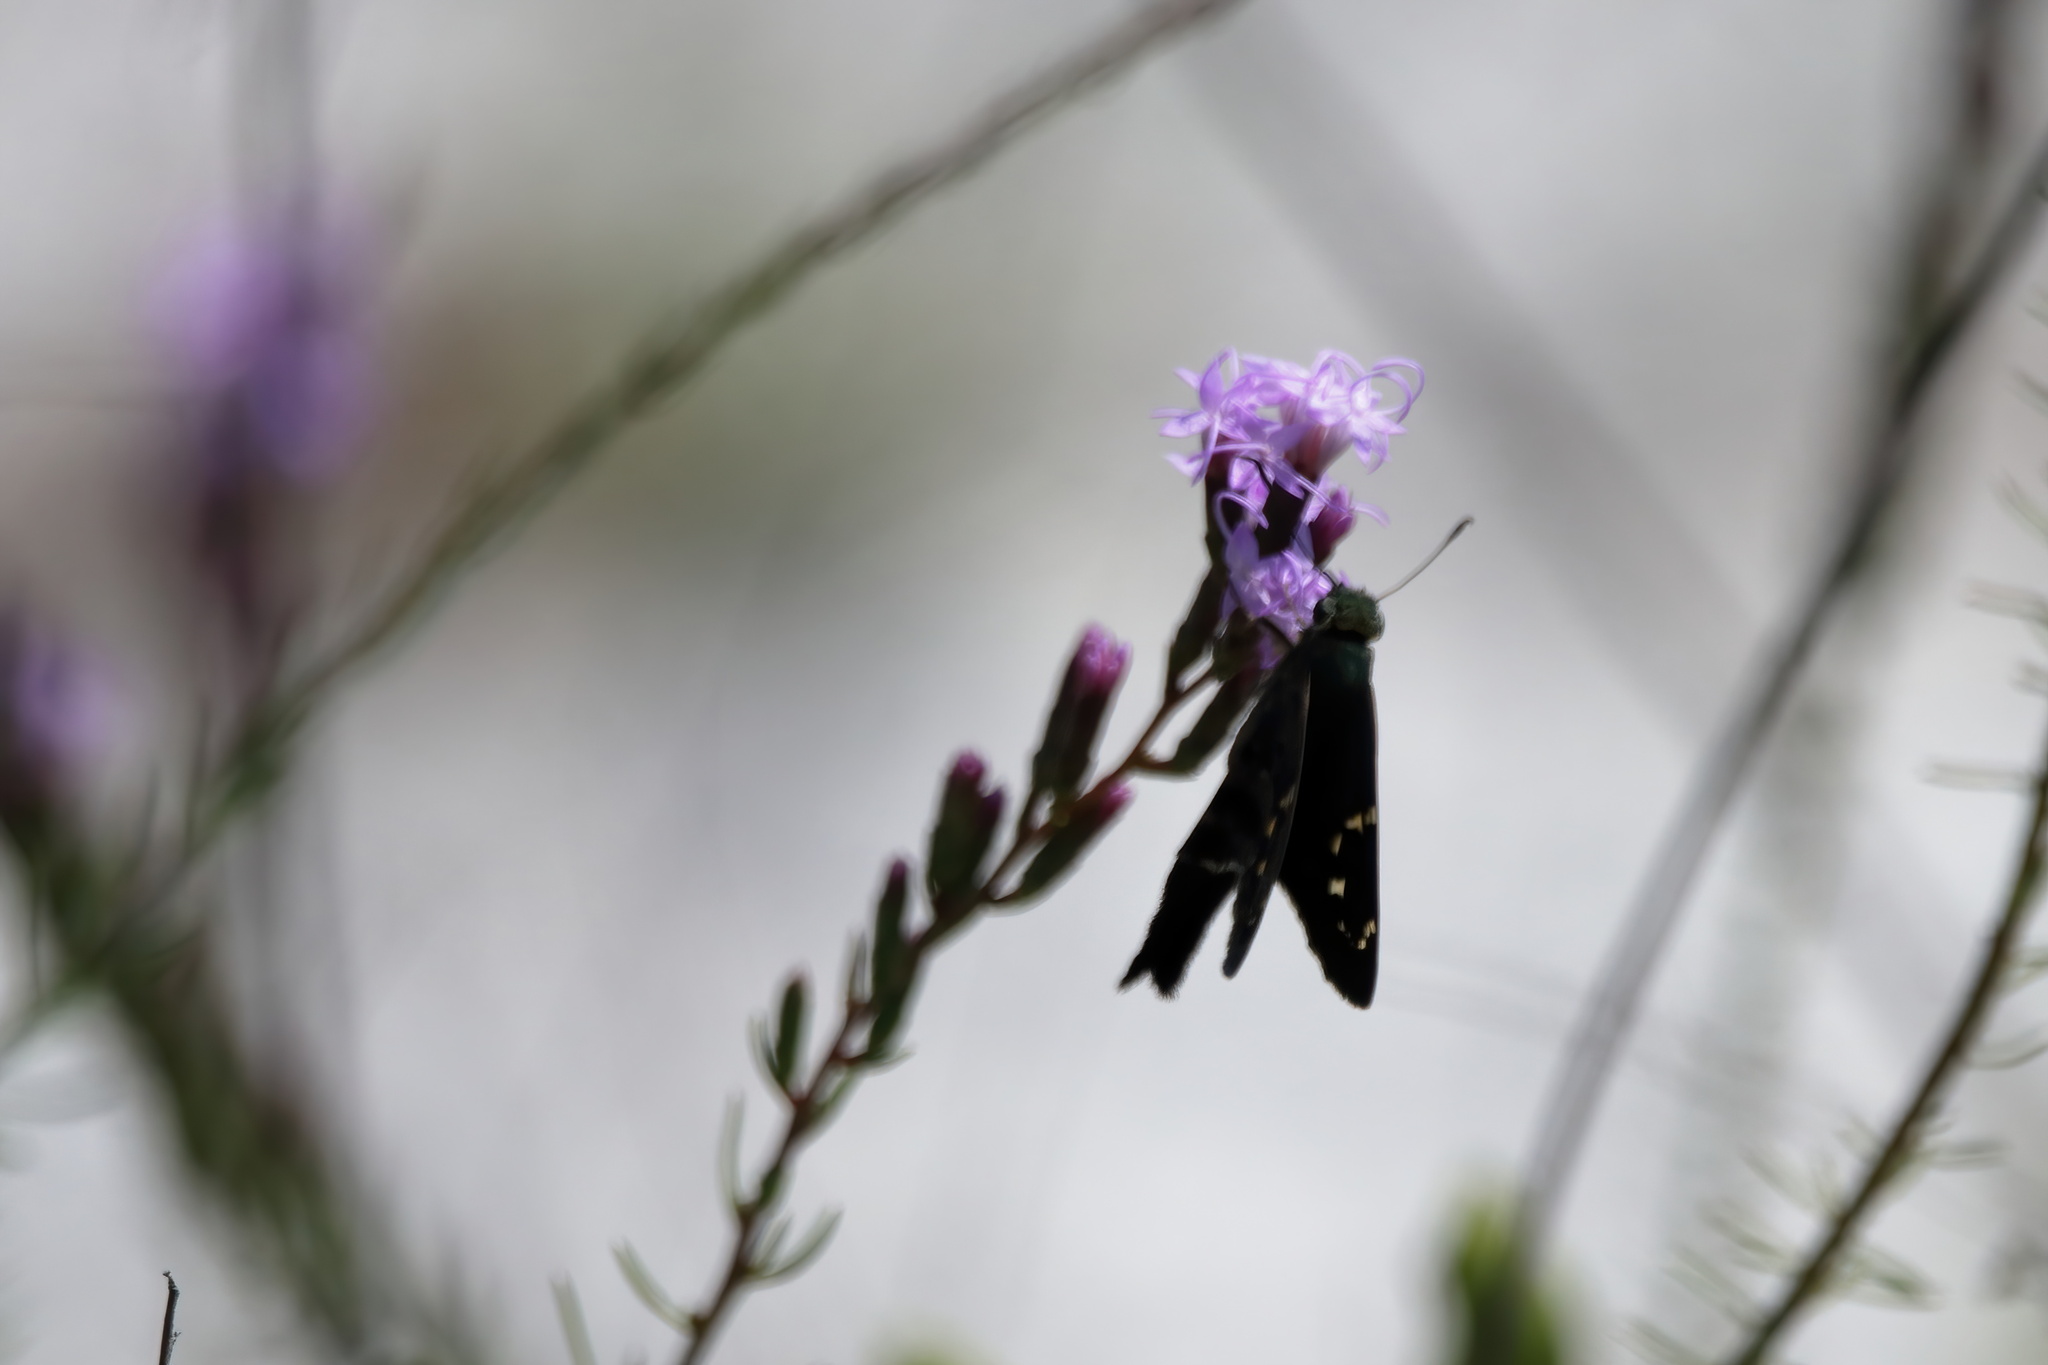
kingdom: Animalia
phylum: Arthropoda
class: Insecta
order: Lepidoptera
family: Hesperiidae
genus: Urbanus
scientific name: Urbanus proteus
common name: Long-tailed skipper
